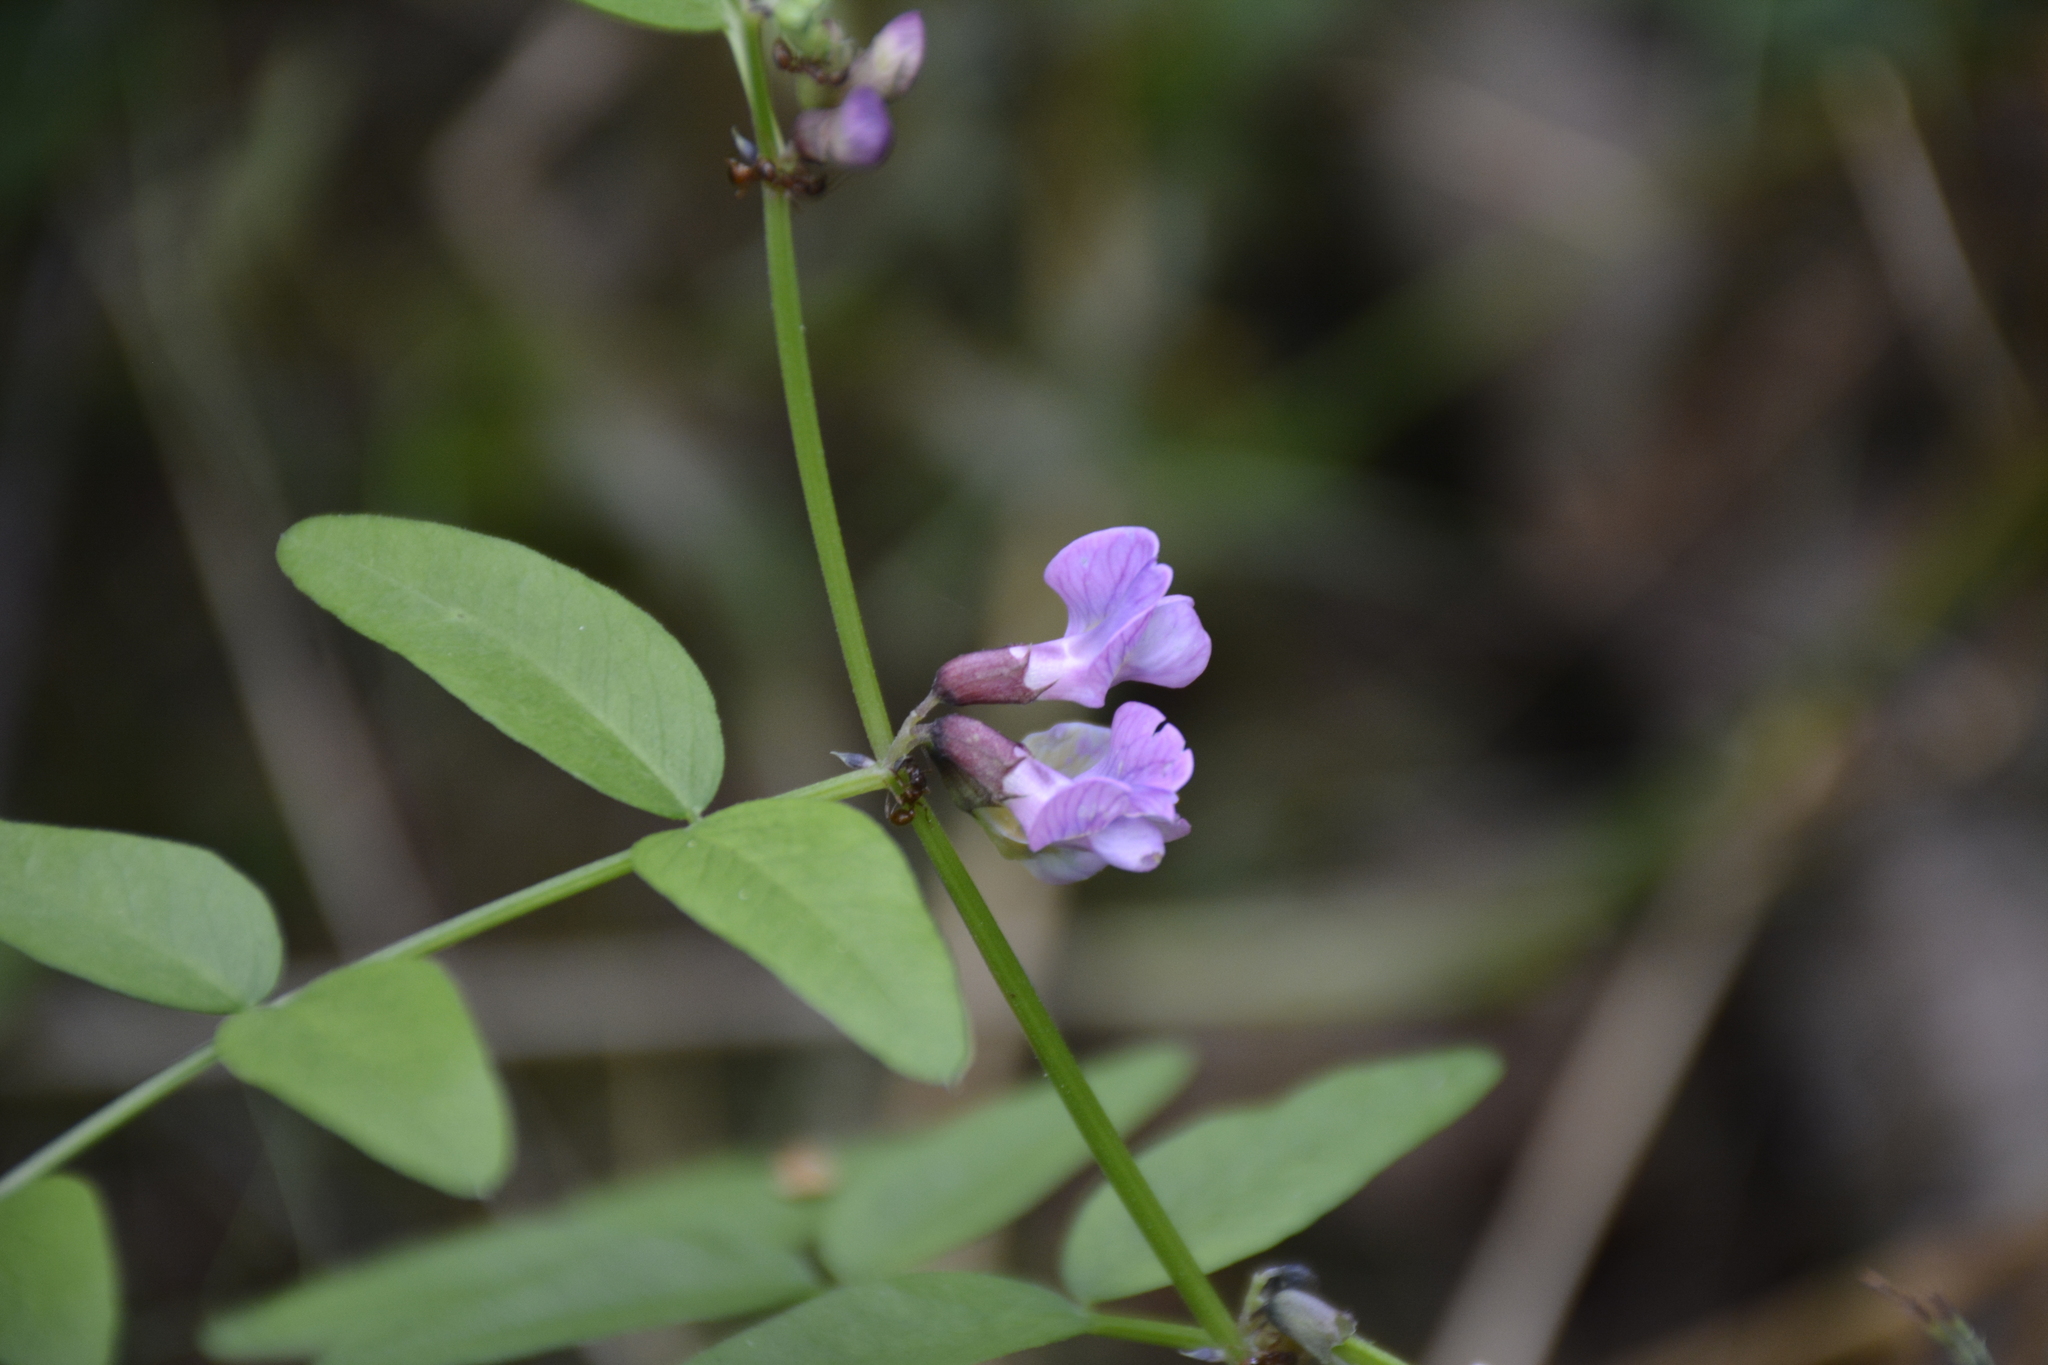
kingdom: Plantae
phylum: Tracheophyta
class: Magnoliopsida
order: Fabales
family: Fabaceae
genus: Vicia
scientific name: Vicia sepium
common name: Bush vetch
